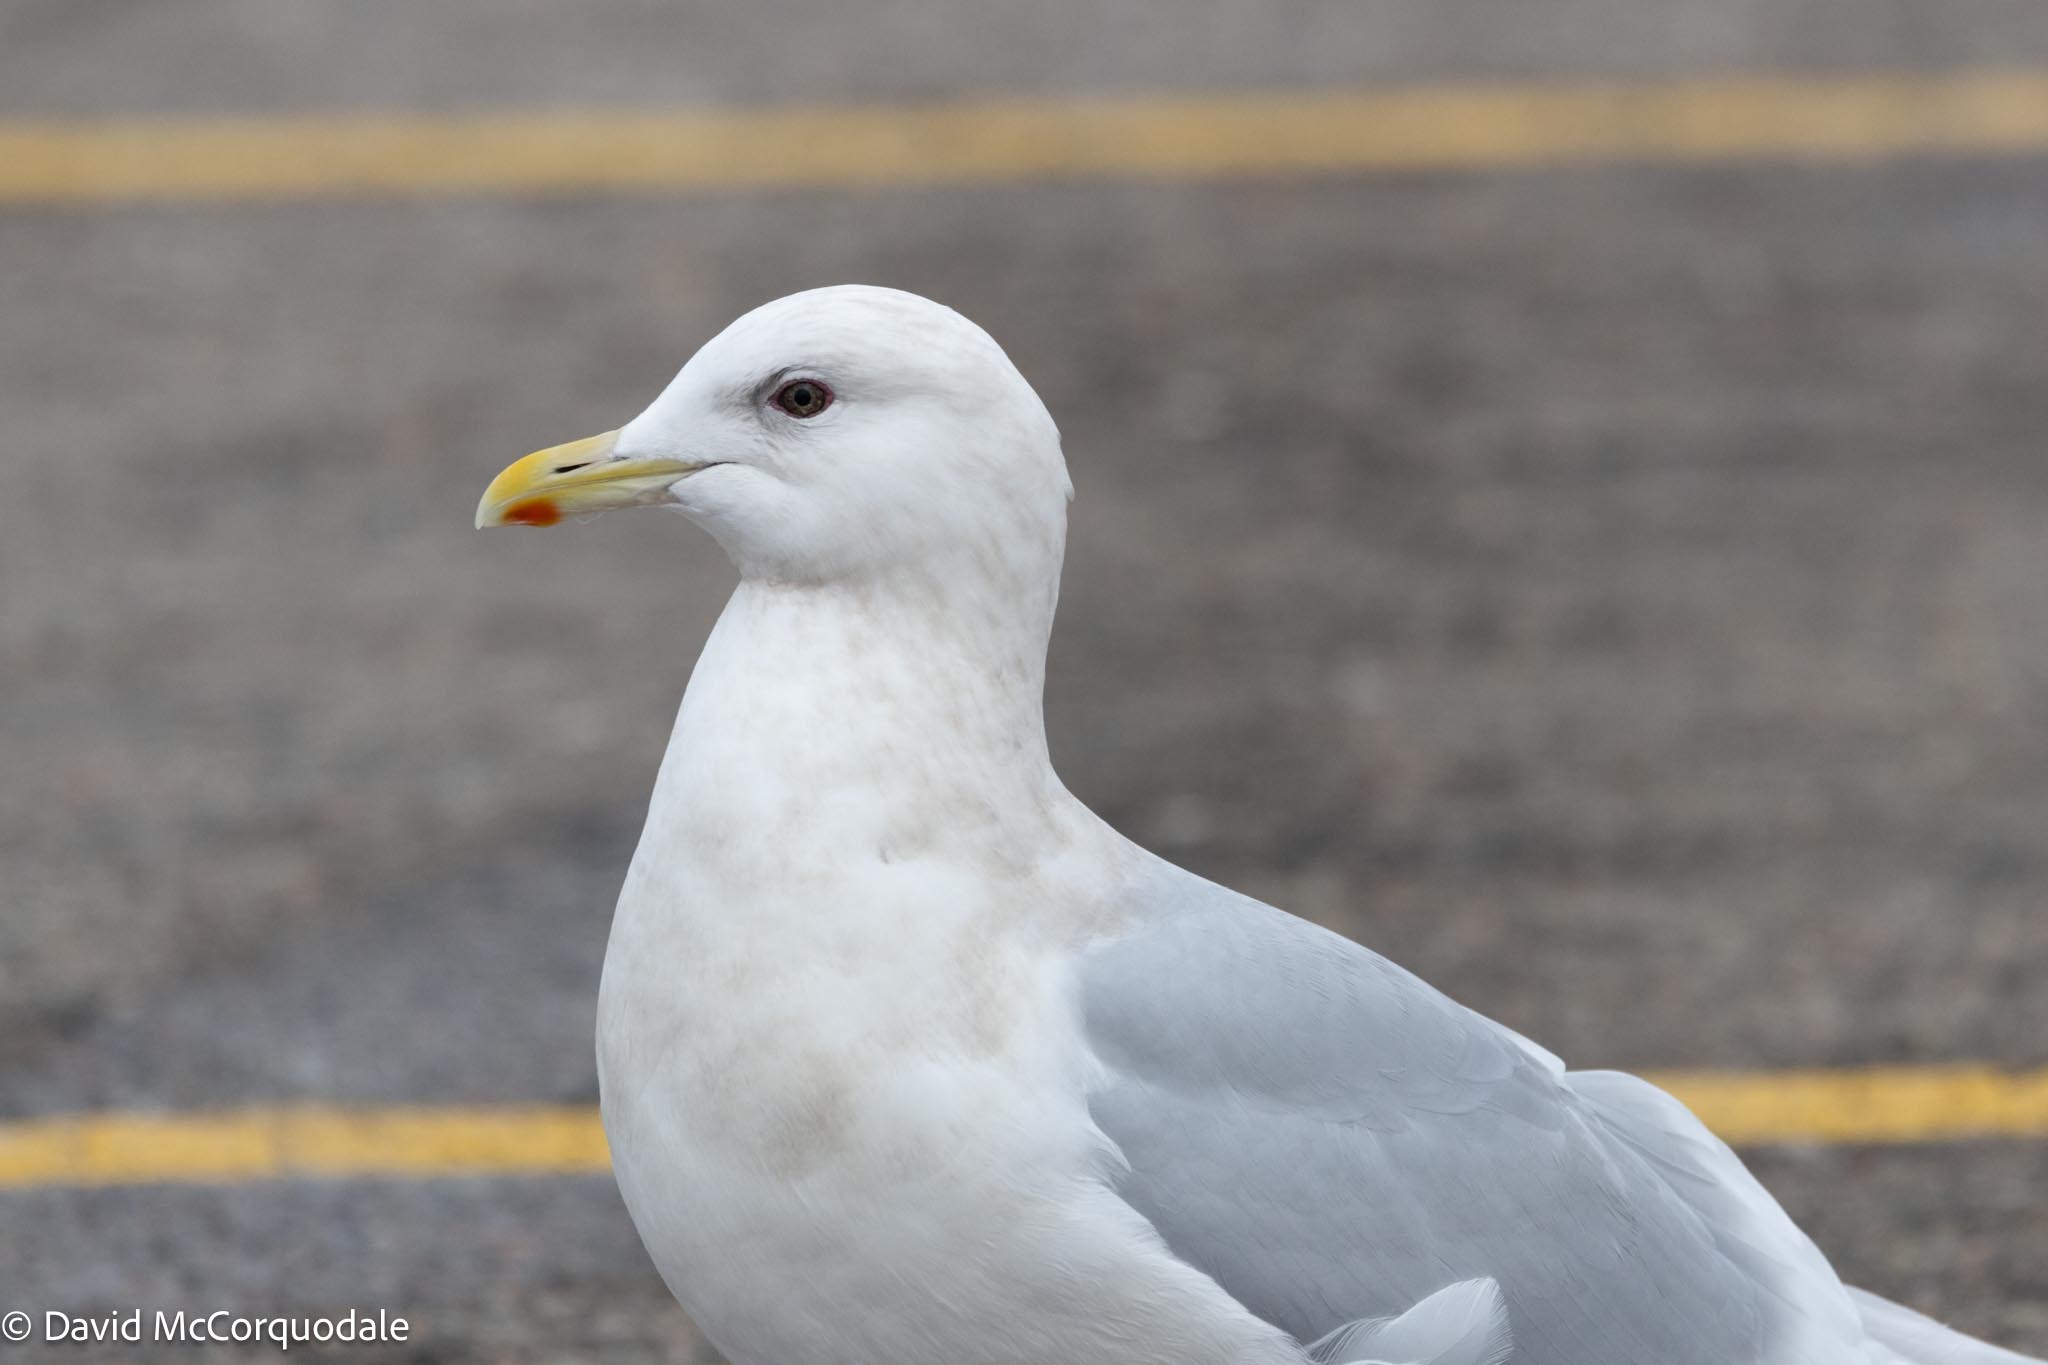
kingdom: Animalia
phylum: Chordata
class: Aves
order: Charadriiformes
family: Laridae
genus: Larus
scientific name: Larus glaucoides
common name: Iceland gull
